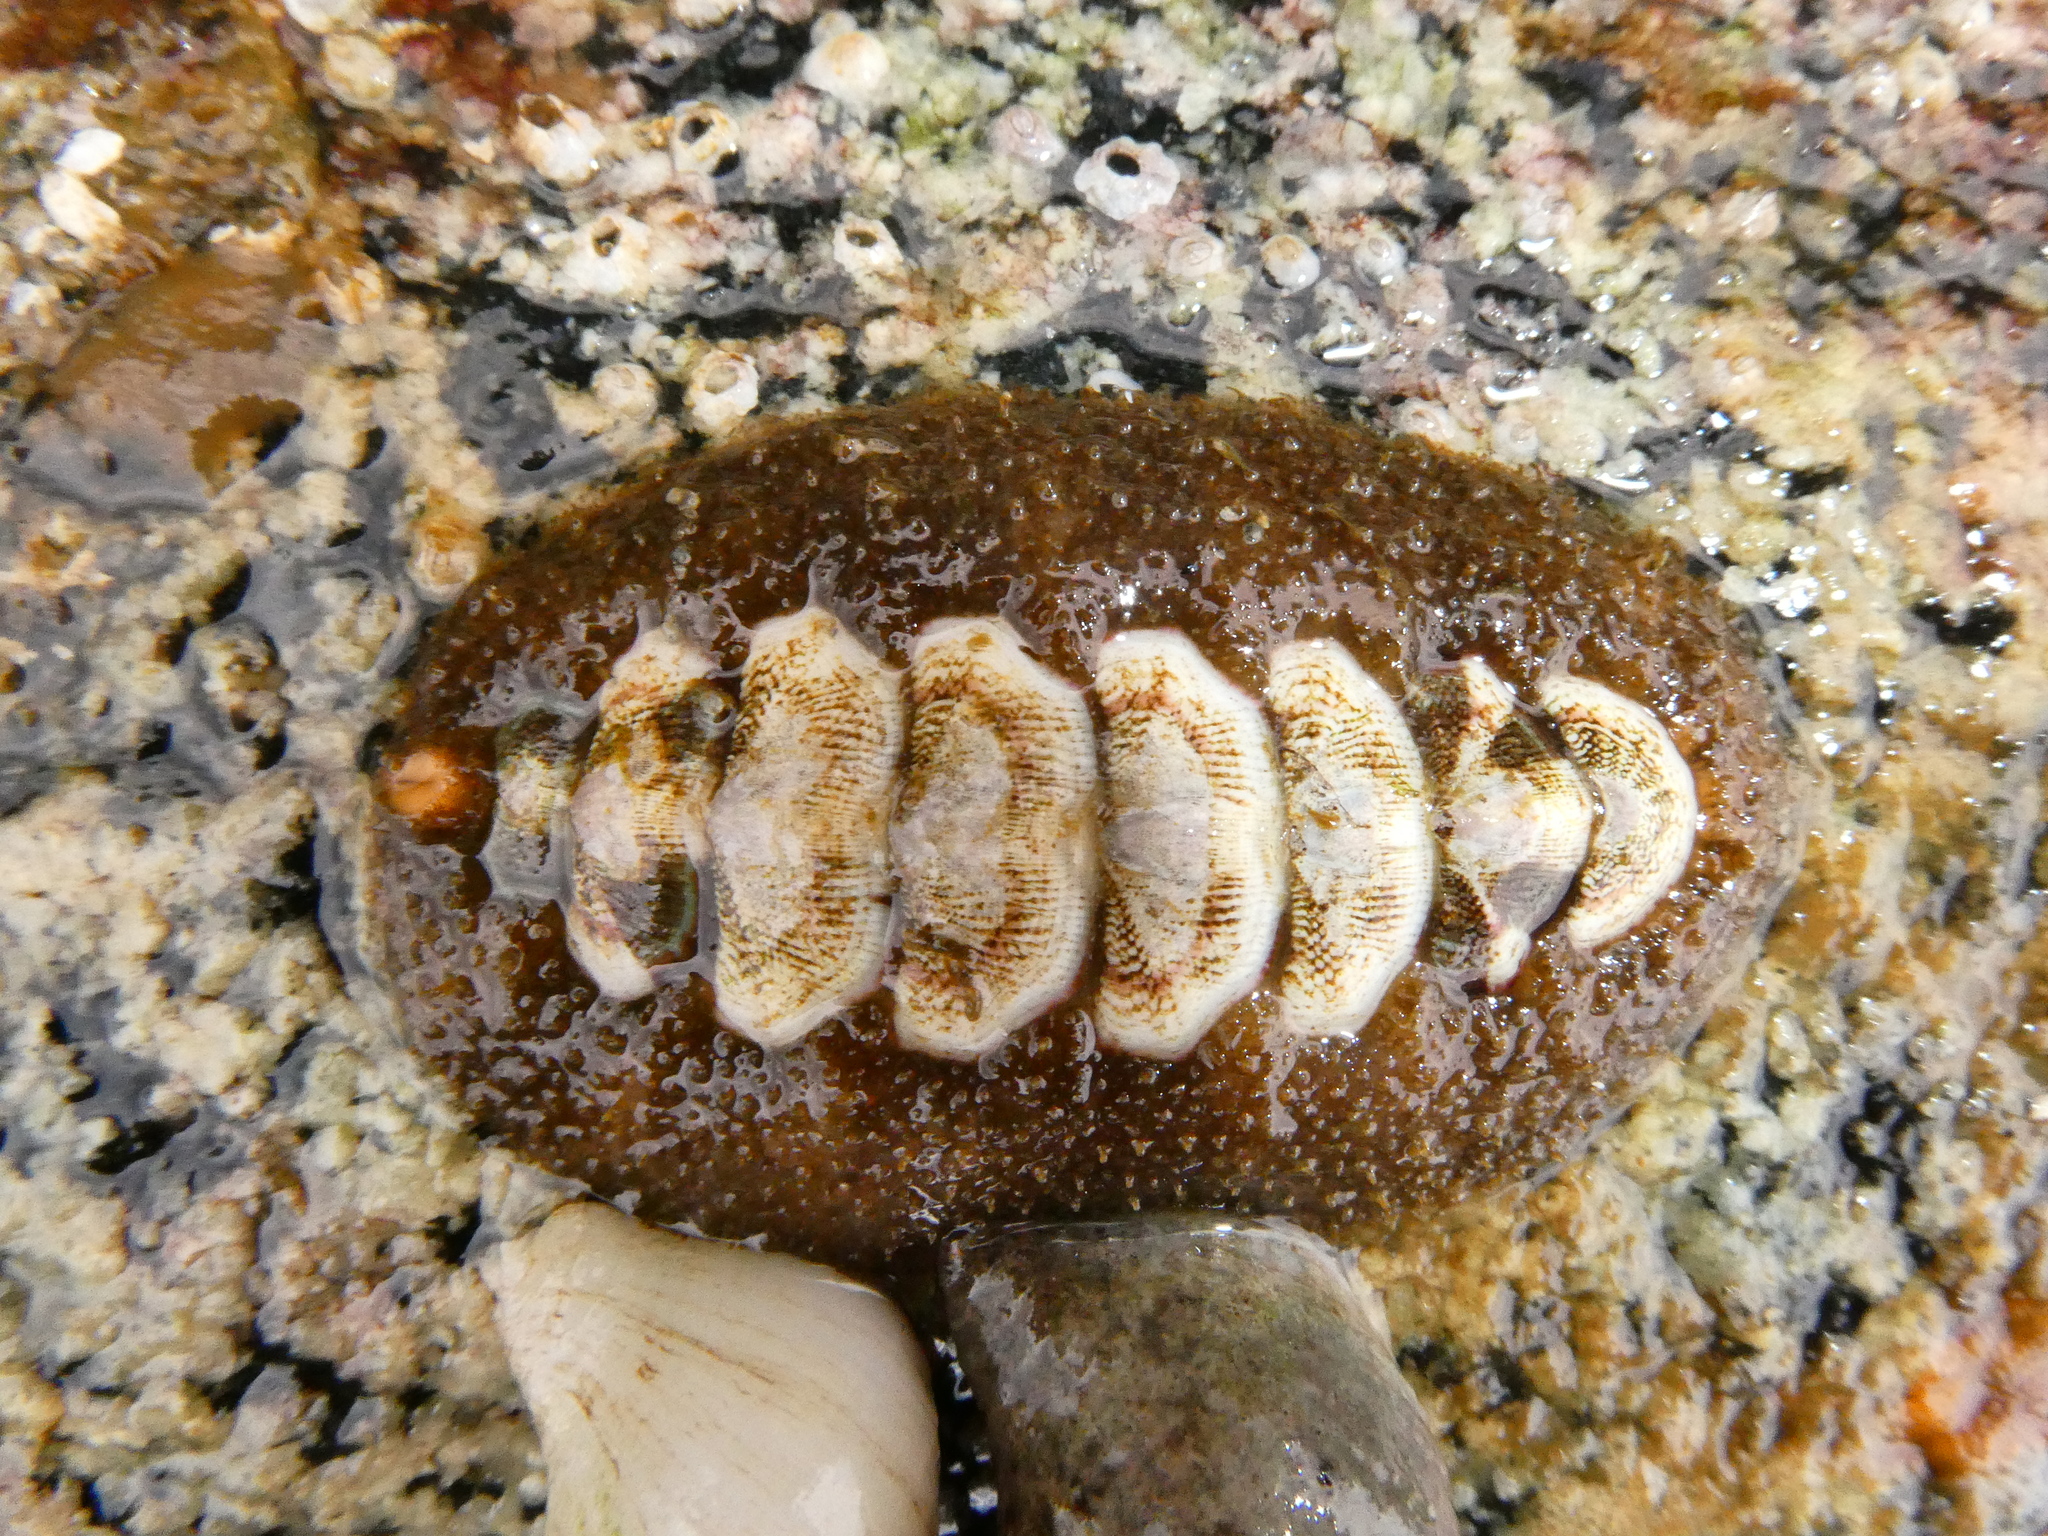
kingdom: Animalia
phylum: Mollusca
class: Polyplacophora
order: Chitonida
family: Mopaliidae
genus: Mopalia
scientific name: Mopalia ciliata
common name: Hairy chiton
